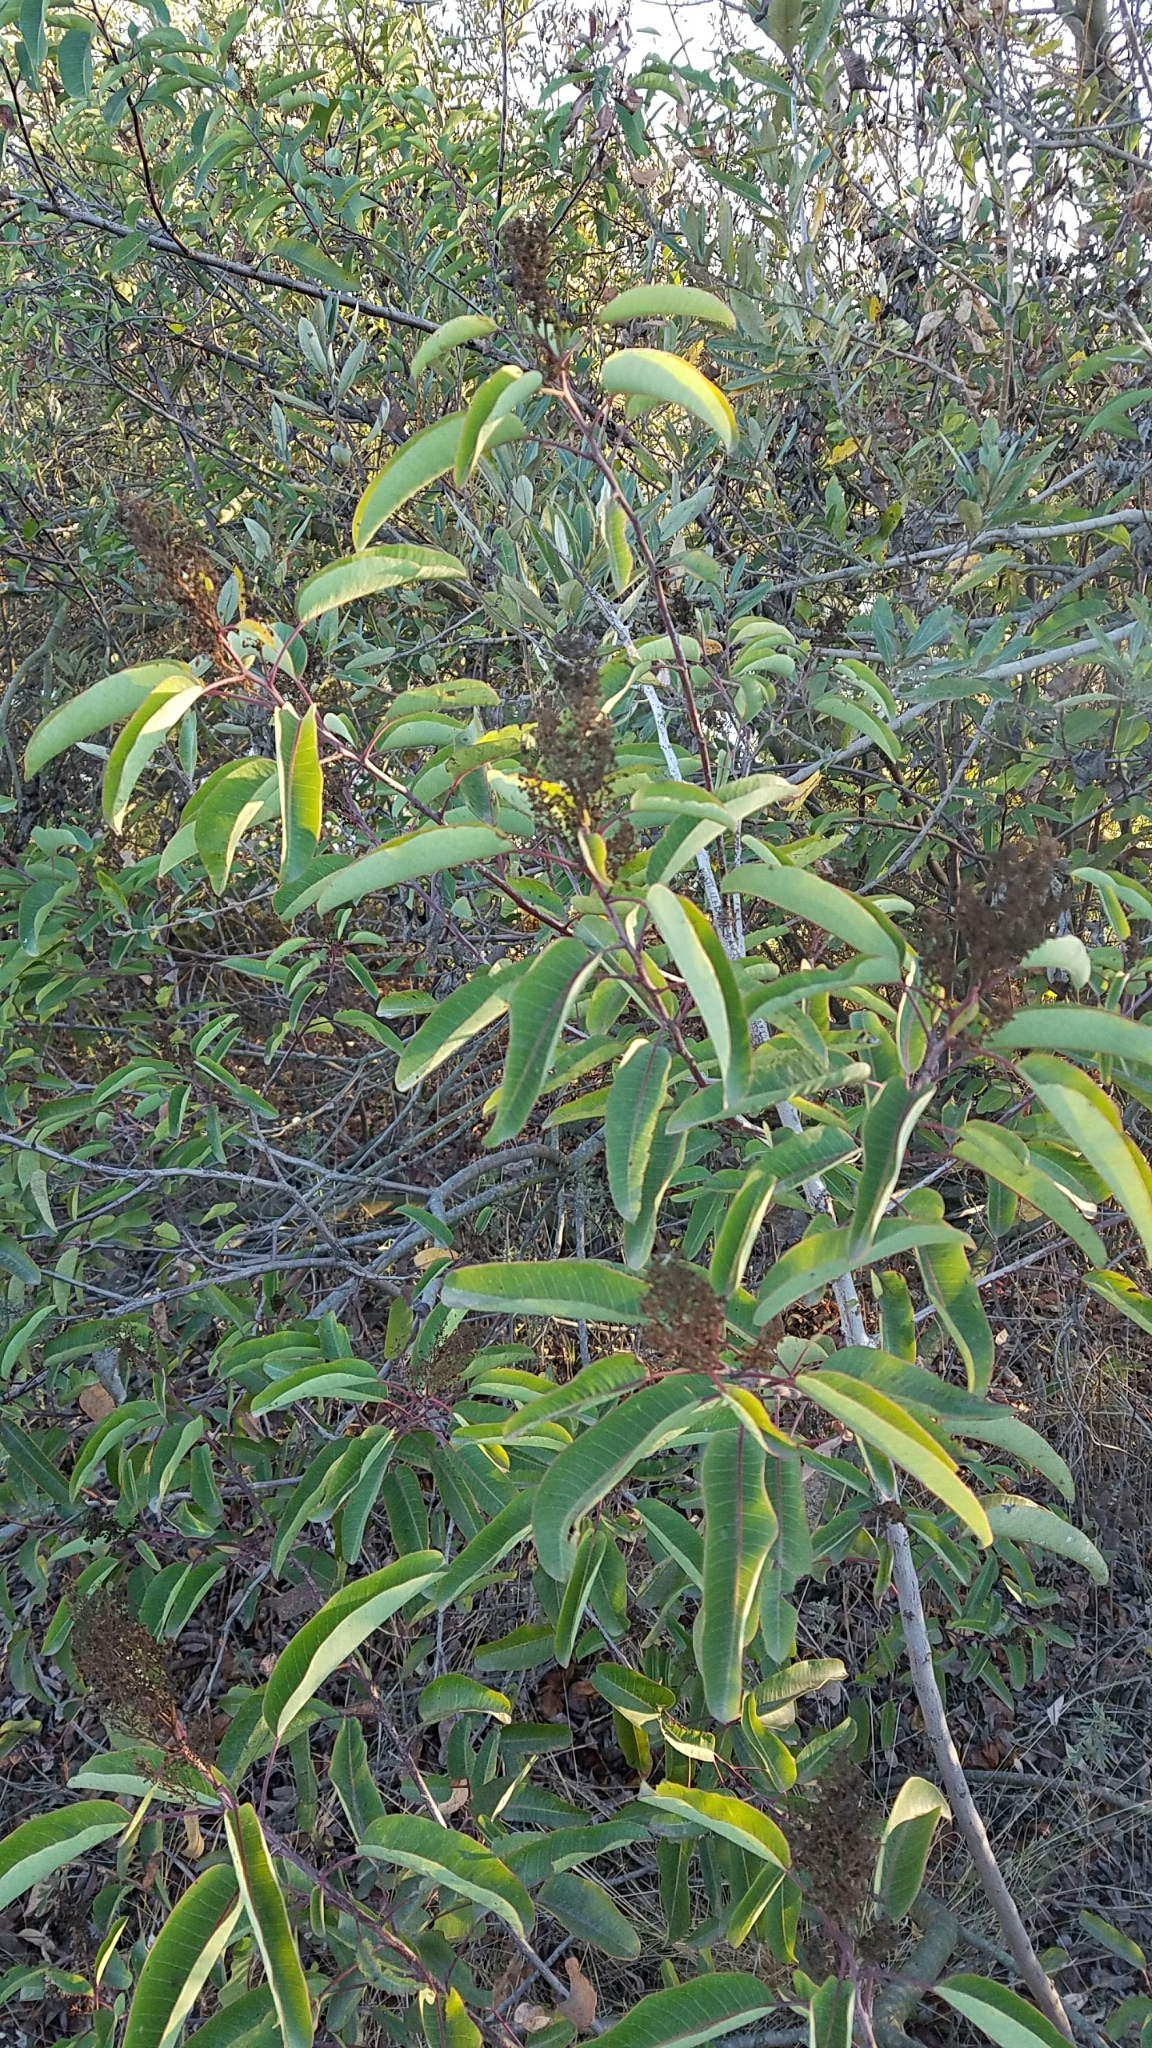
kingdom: Plantae
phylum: Tracheophyta
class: Magnoliopsida
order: Sapindales
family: Anacardiaceae
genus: Malosma
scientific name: Malosma laurina
